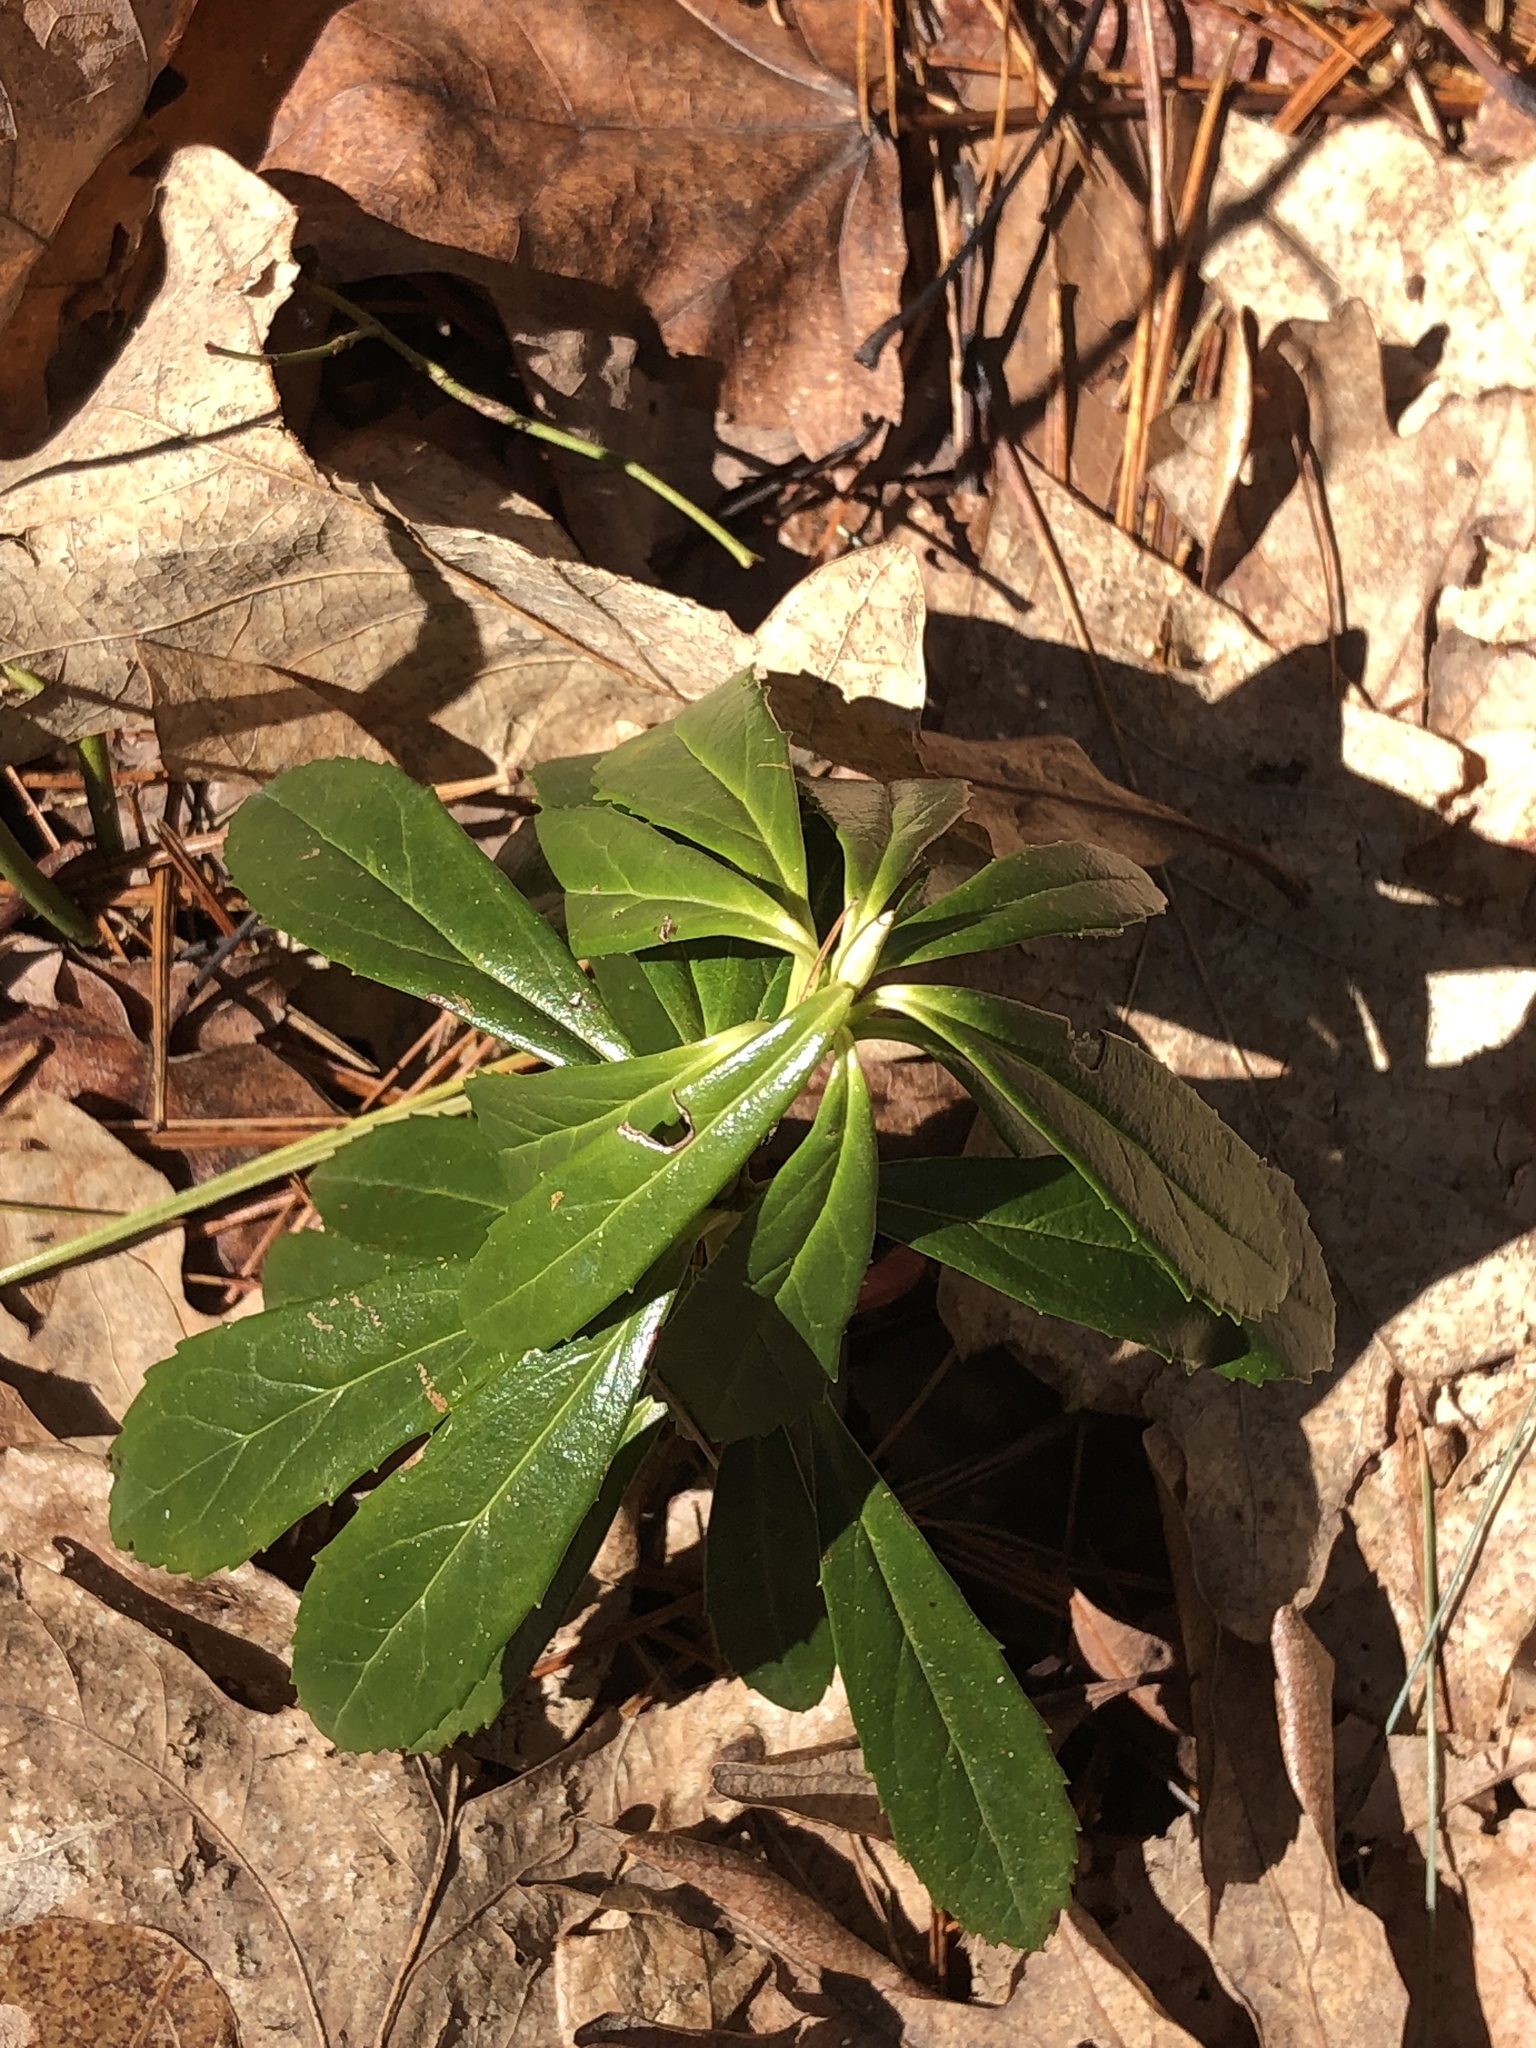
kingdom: Plantae
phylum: Tracheophyta
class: Magnoliopsida
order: Ericales
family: Ericaceae
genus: Chimaphila
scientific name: Chimaphila umbellata
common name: Pipsissewa
